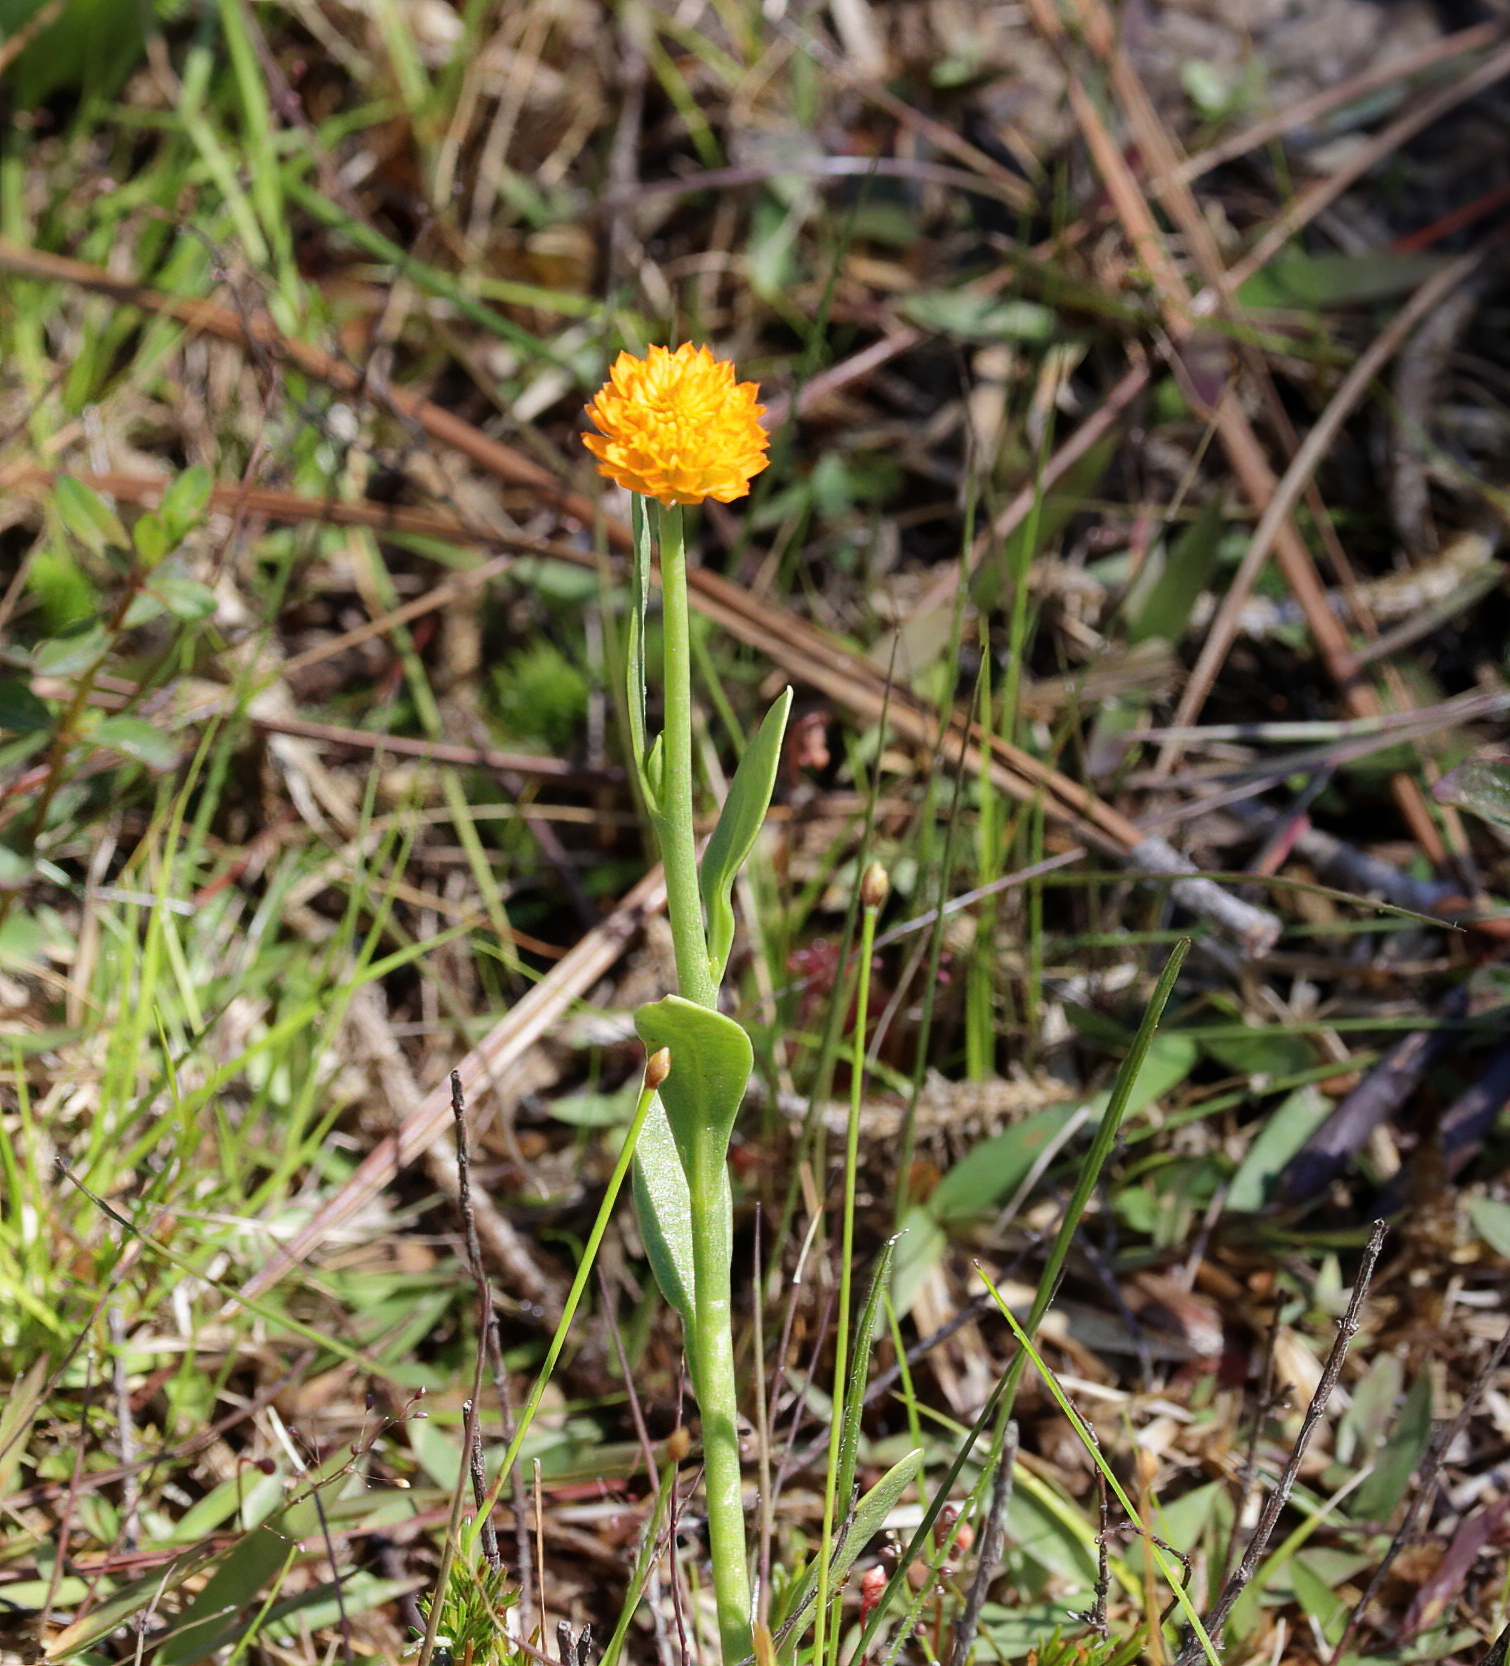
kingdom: Plantae
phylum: Tracheophyta
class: Magnoliopsida
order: Fabales
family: Polygalaceae
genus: Polygala
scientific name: Polygala lutea
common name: Orange milkwort
